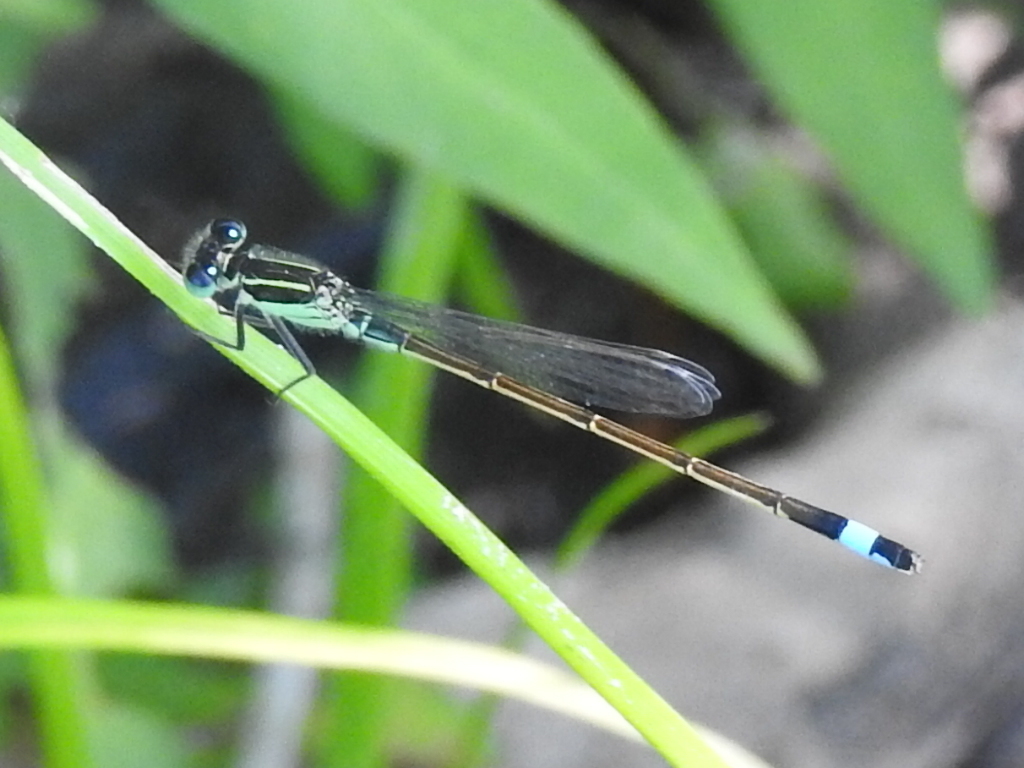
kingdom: Animalia
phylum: Arthropoda
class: Insecta
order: Odonata
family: Coenagrionidae
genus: Ischnura
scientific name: Ischnura ramburii
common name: Rambur's forktail
